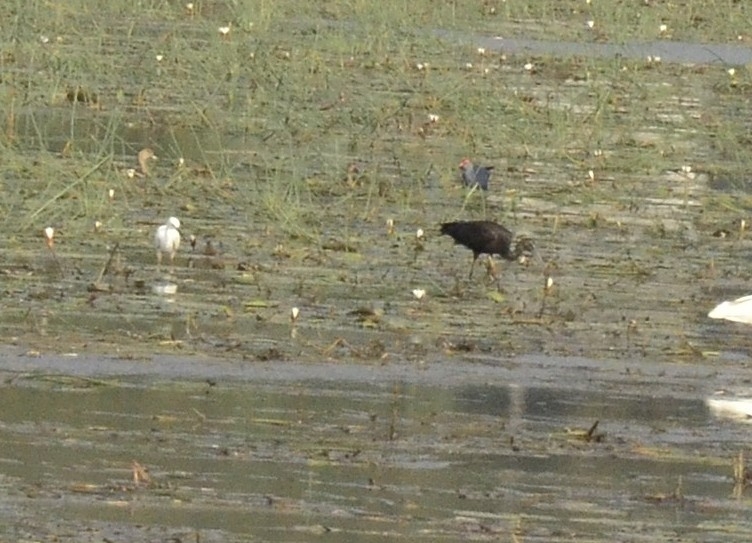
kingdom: Animalia
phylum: Chordata
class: Aves
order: Pelecaniformes
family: Threskiornithidae
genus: Plegadis
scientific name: Plegadis falcinellus
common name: Glossy ibis
